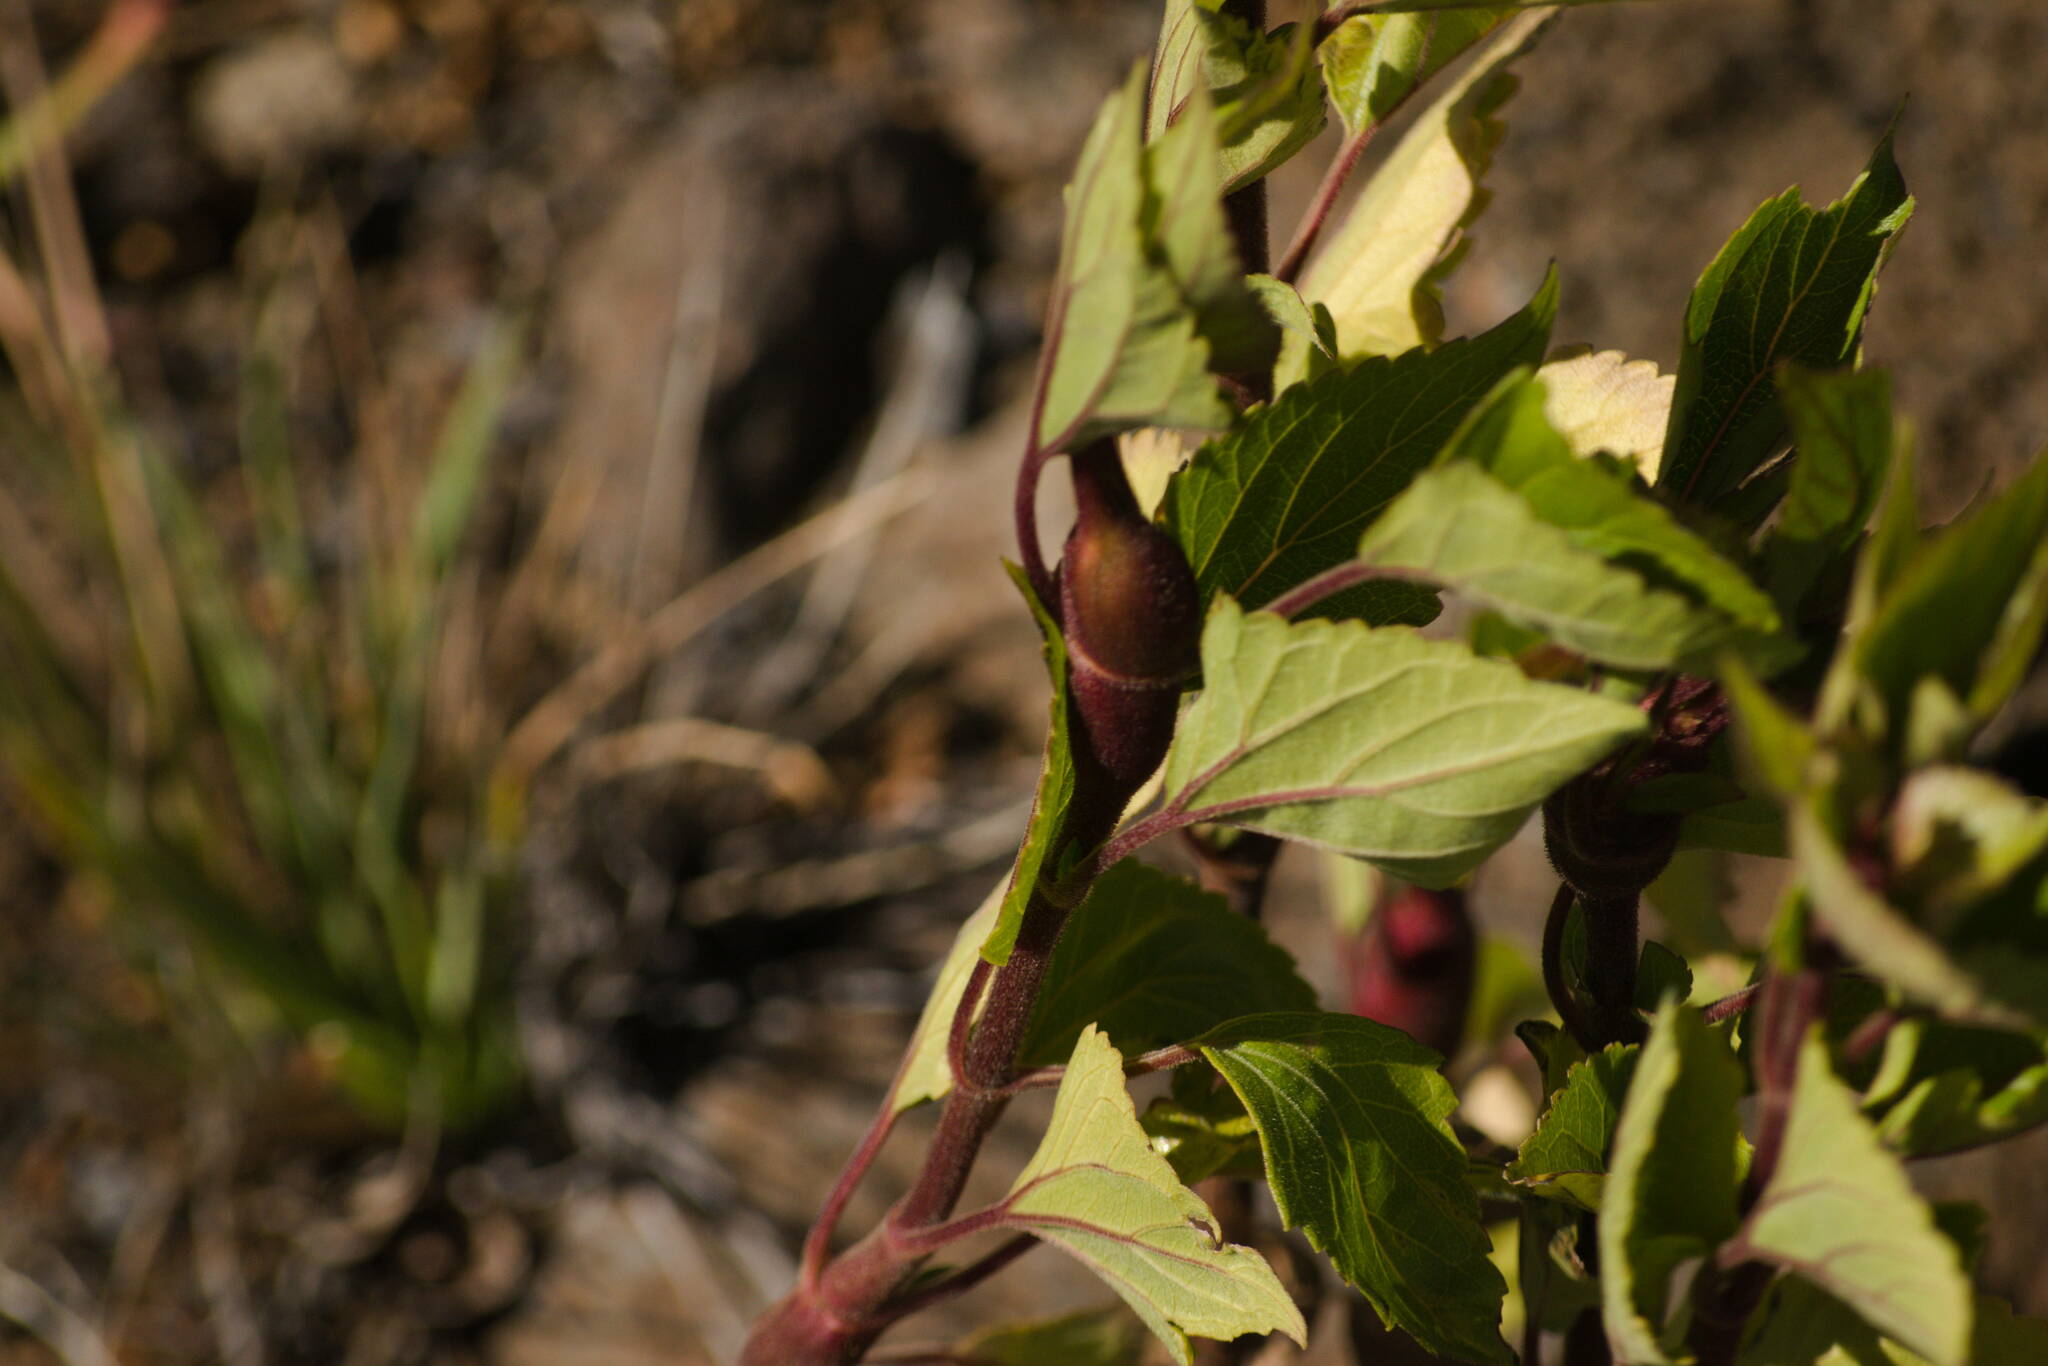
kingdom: Animalia
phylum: Arthropoda
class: Insecta
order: Diptera
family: Tephritidae
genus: Procecidochares
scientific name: Procecidochares utilis
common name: Eupatorium gall fly
